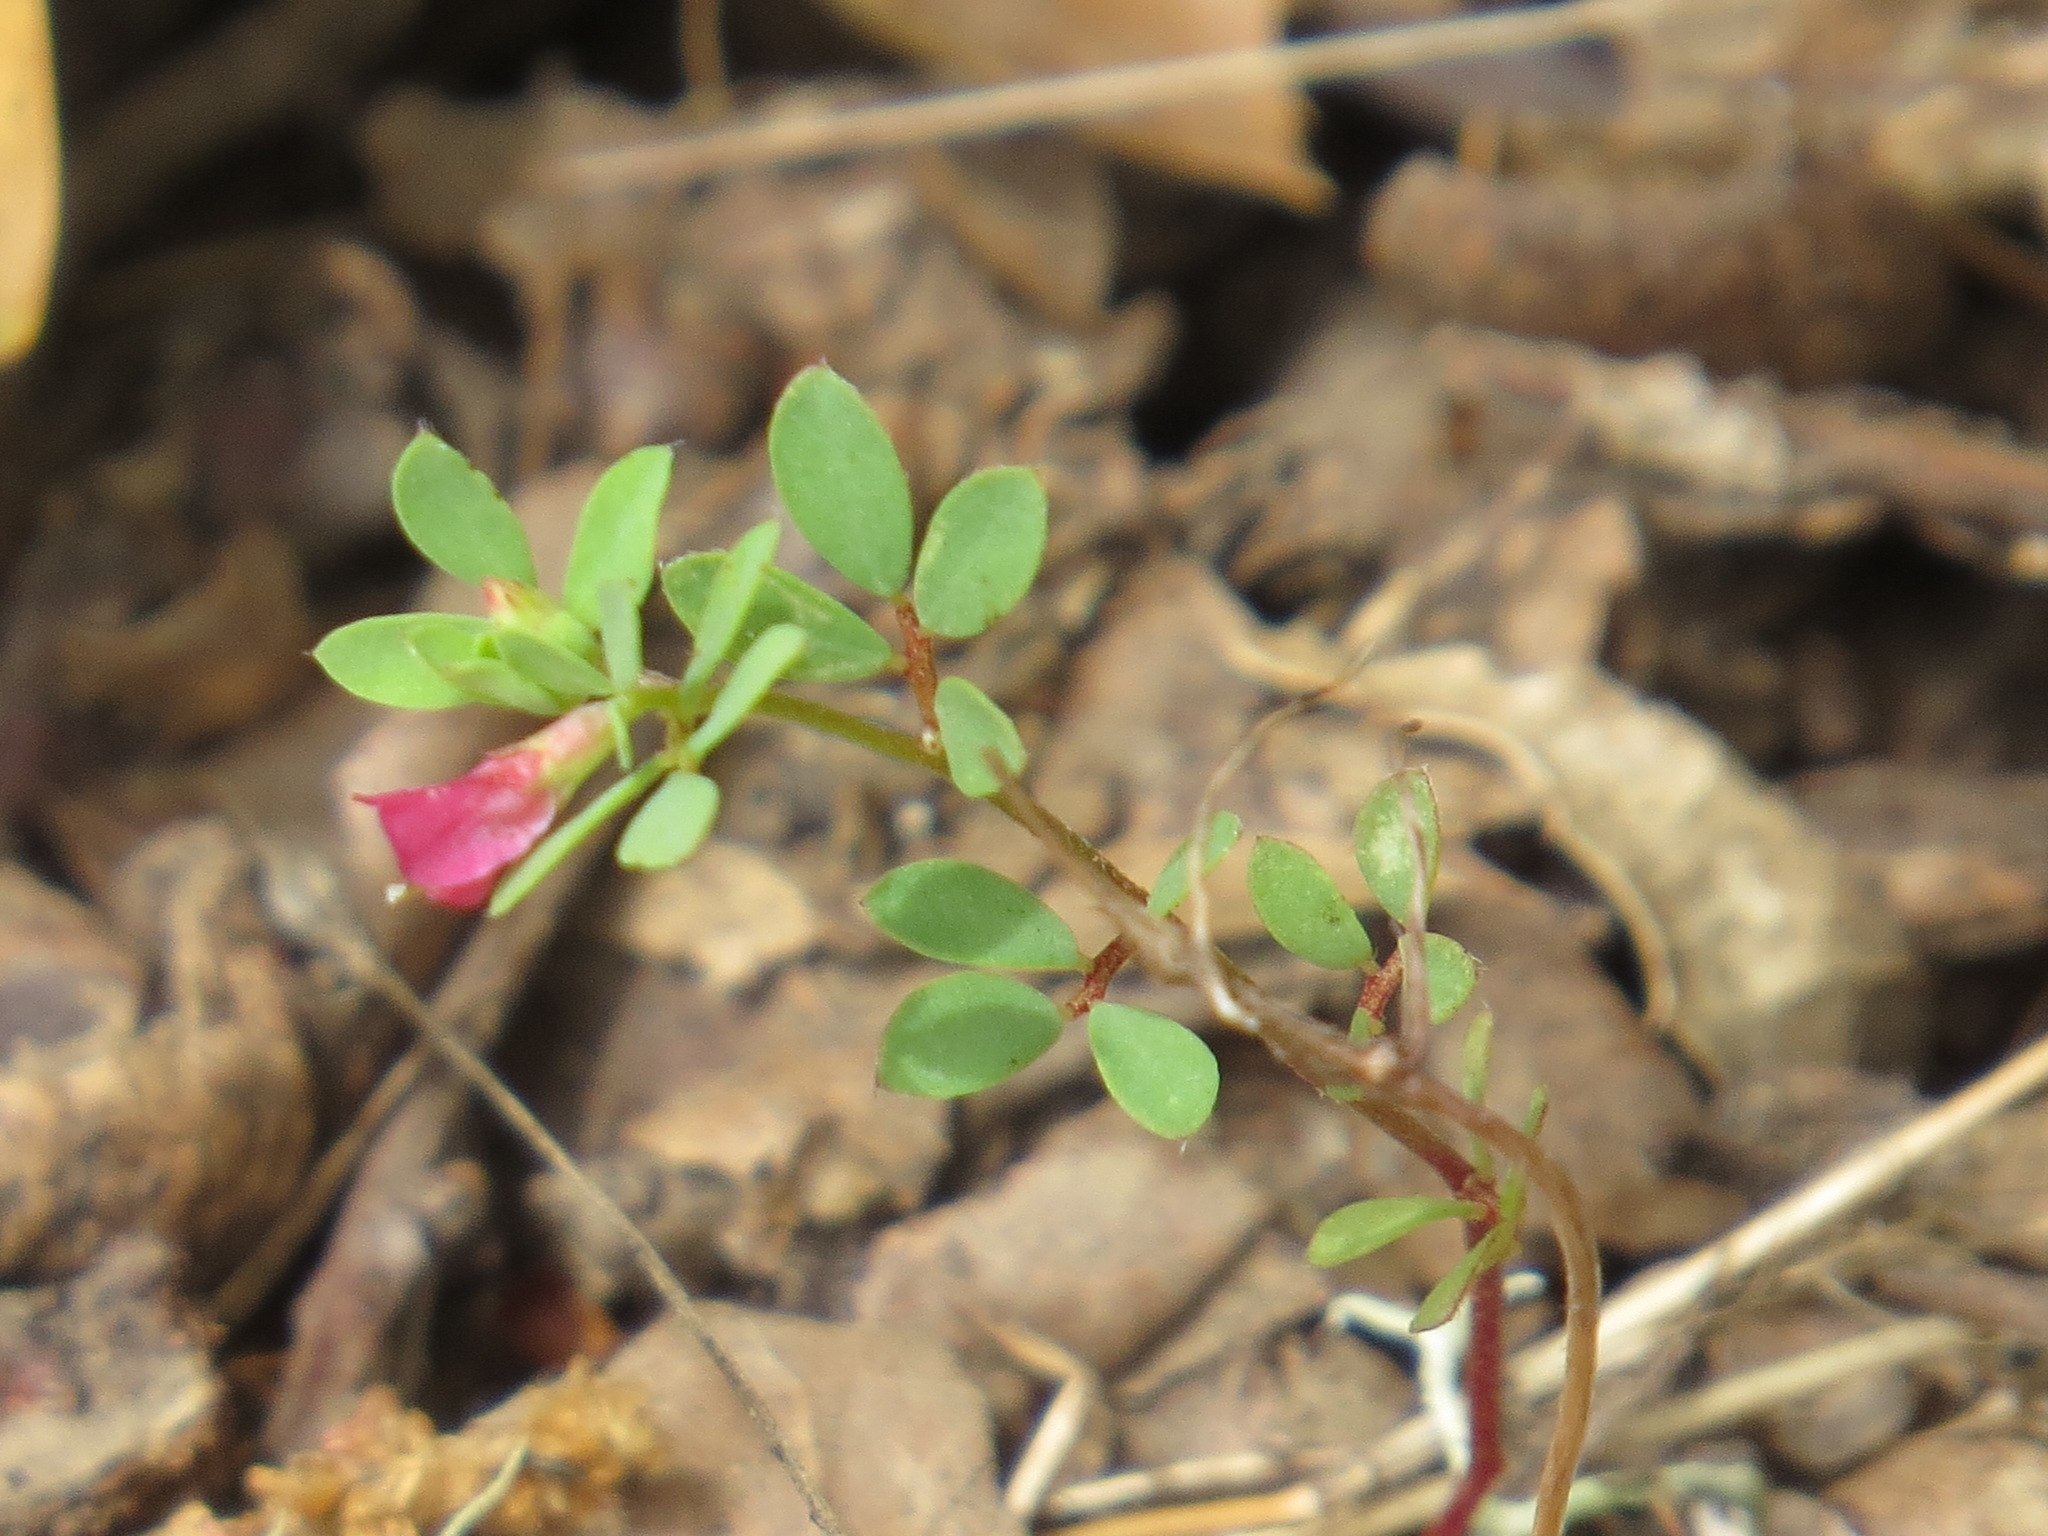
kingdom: Plantae
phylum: Tracheophyta
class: Magnoliopsida
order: Fabales
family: Fabaceae
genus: Acmispon
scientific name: Acmispon parviflorus
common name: Desert deer-vetch
